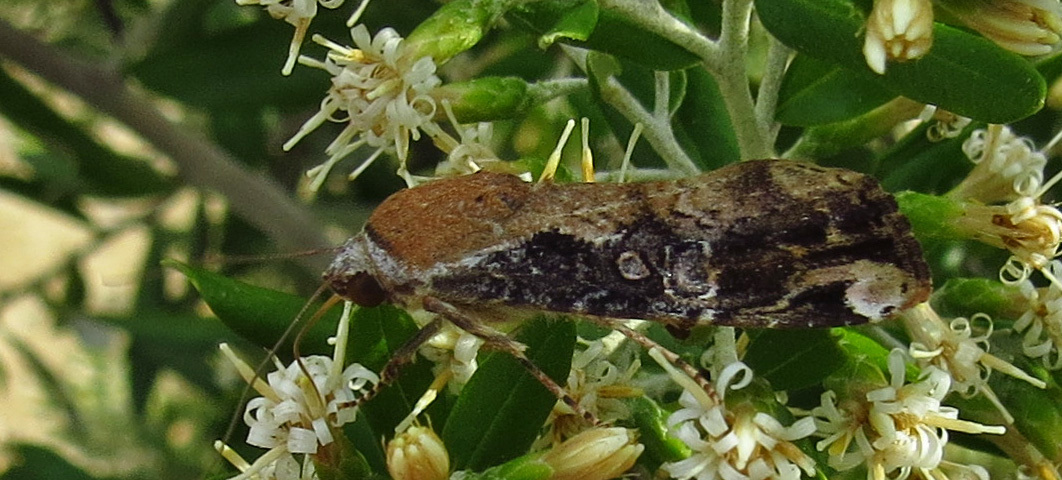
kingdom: Animalia
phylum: Arthropoda
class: Insecta
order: Lepidoptera
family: Noctuidae
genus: Magusa
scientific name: Magusa divaricata
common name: Orb narrow-winged moth
